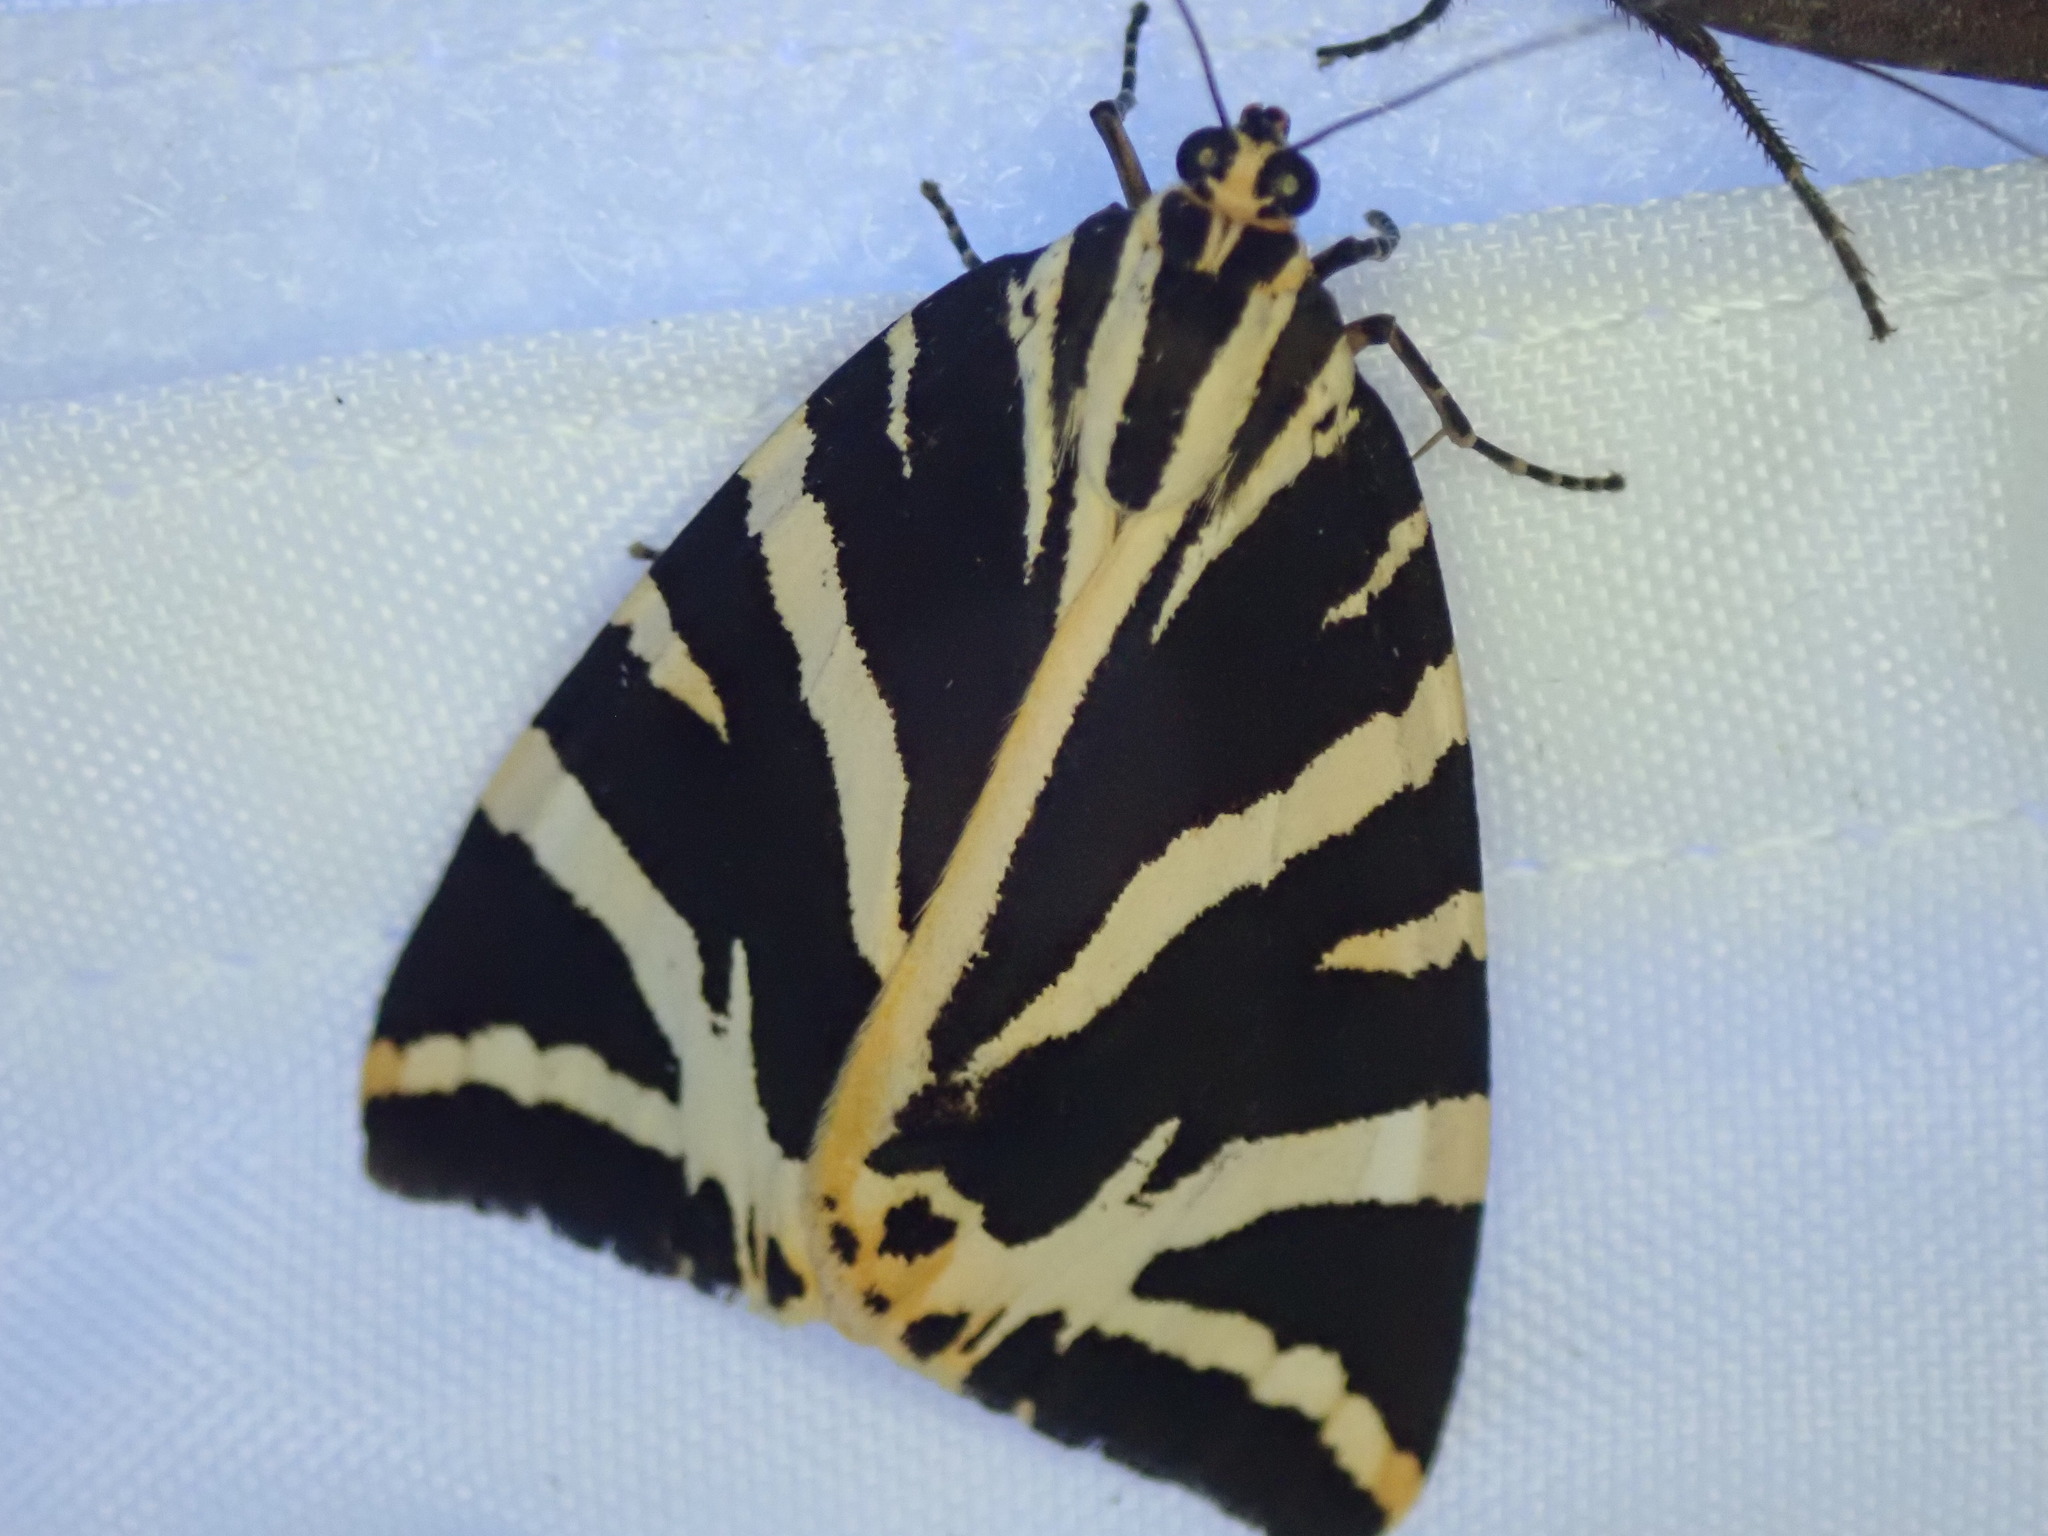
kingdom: Animalia
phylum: Arthropoda
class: Insecta
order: Lepidoptera
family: Erebidae
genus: Euplagia
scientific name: Euplagia quadripunctaria
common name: Jersey tiger
